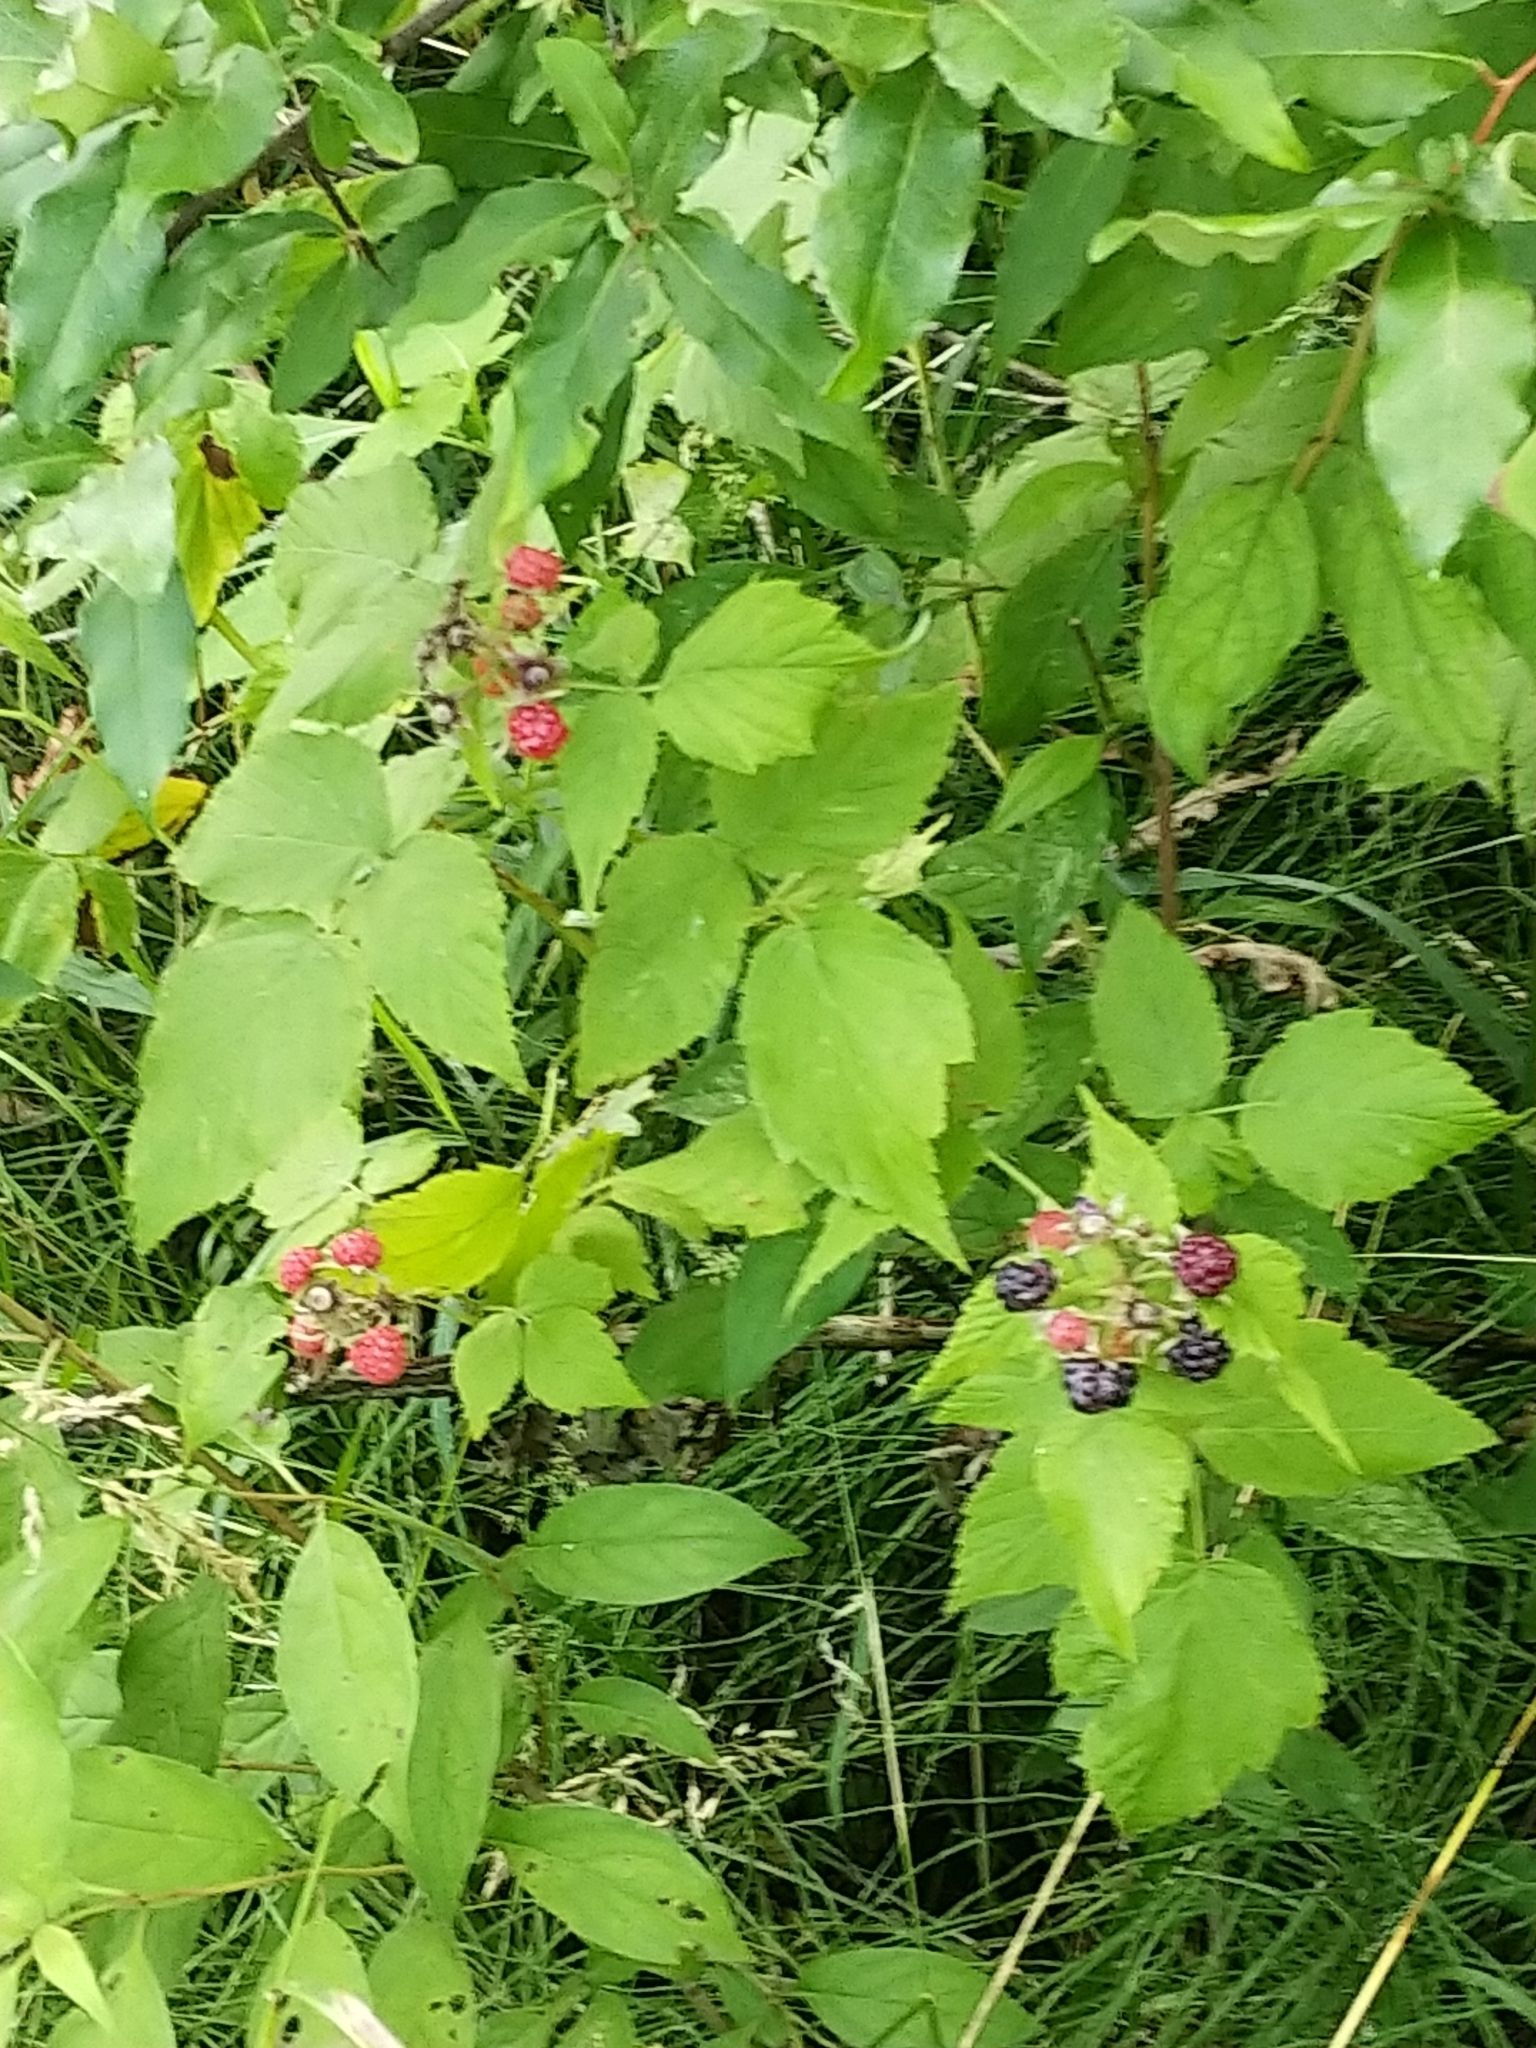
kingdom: Plantae
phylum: Tracheophyta
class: Magnoliopsida
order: Rosales
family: Rosaceae
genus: Rubus
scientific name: Rubus occidentalis
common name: Black raspberry
